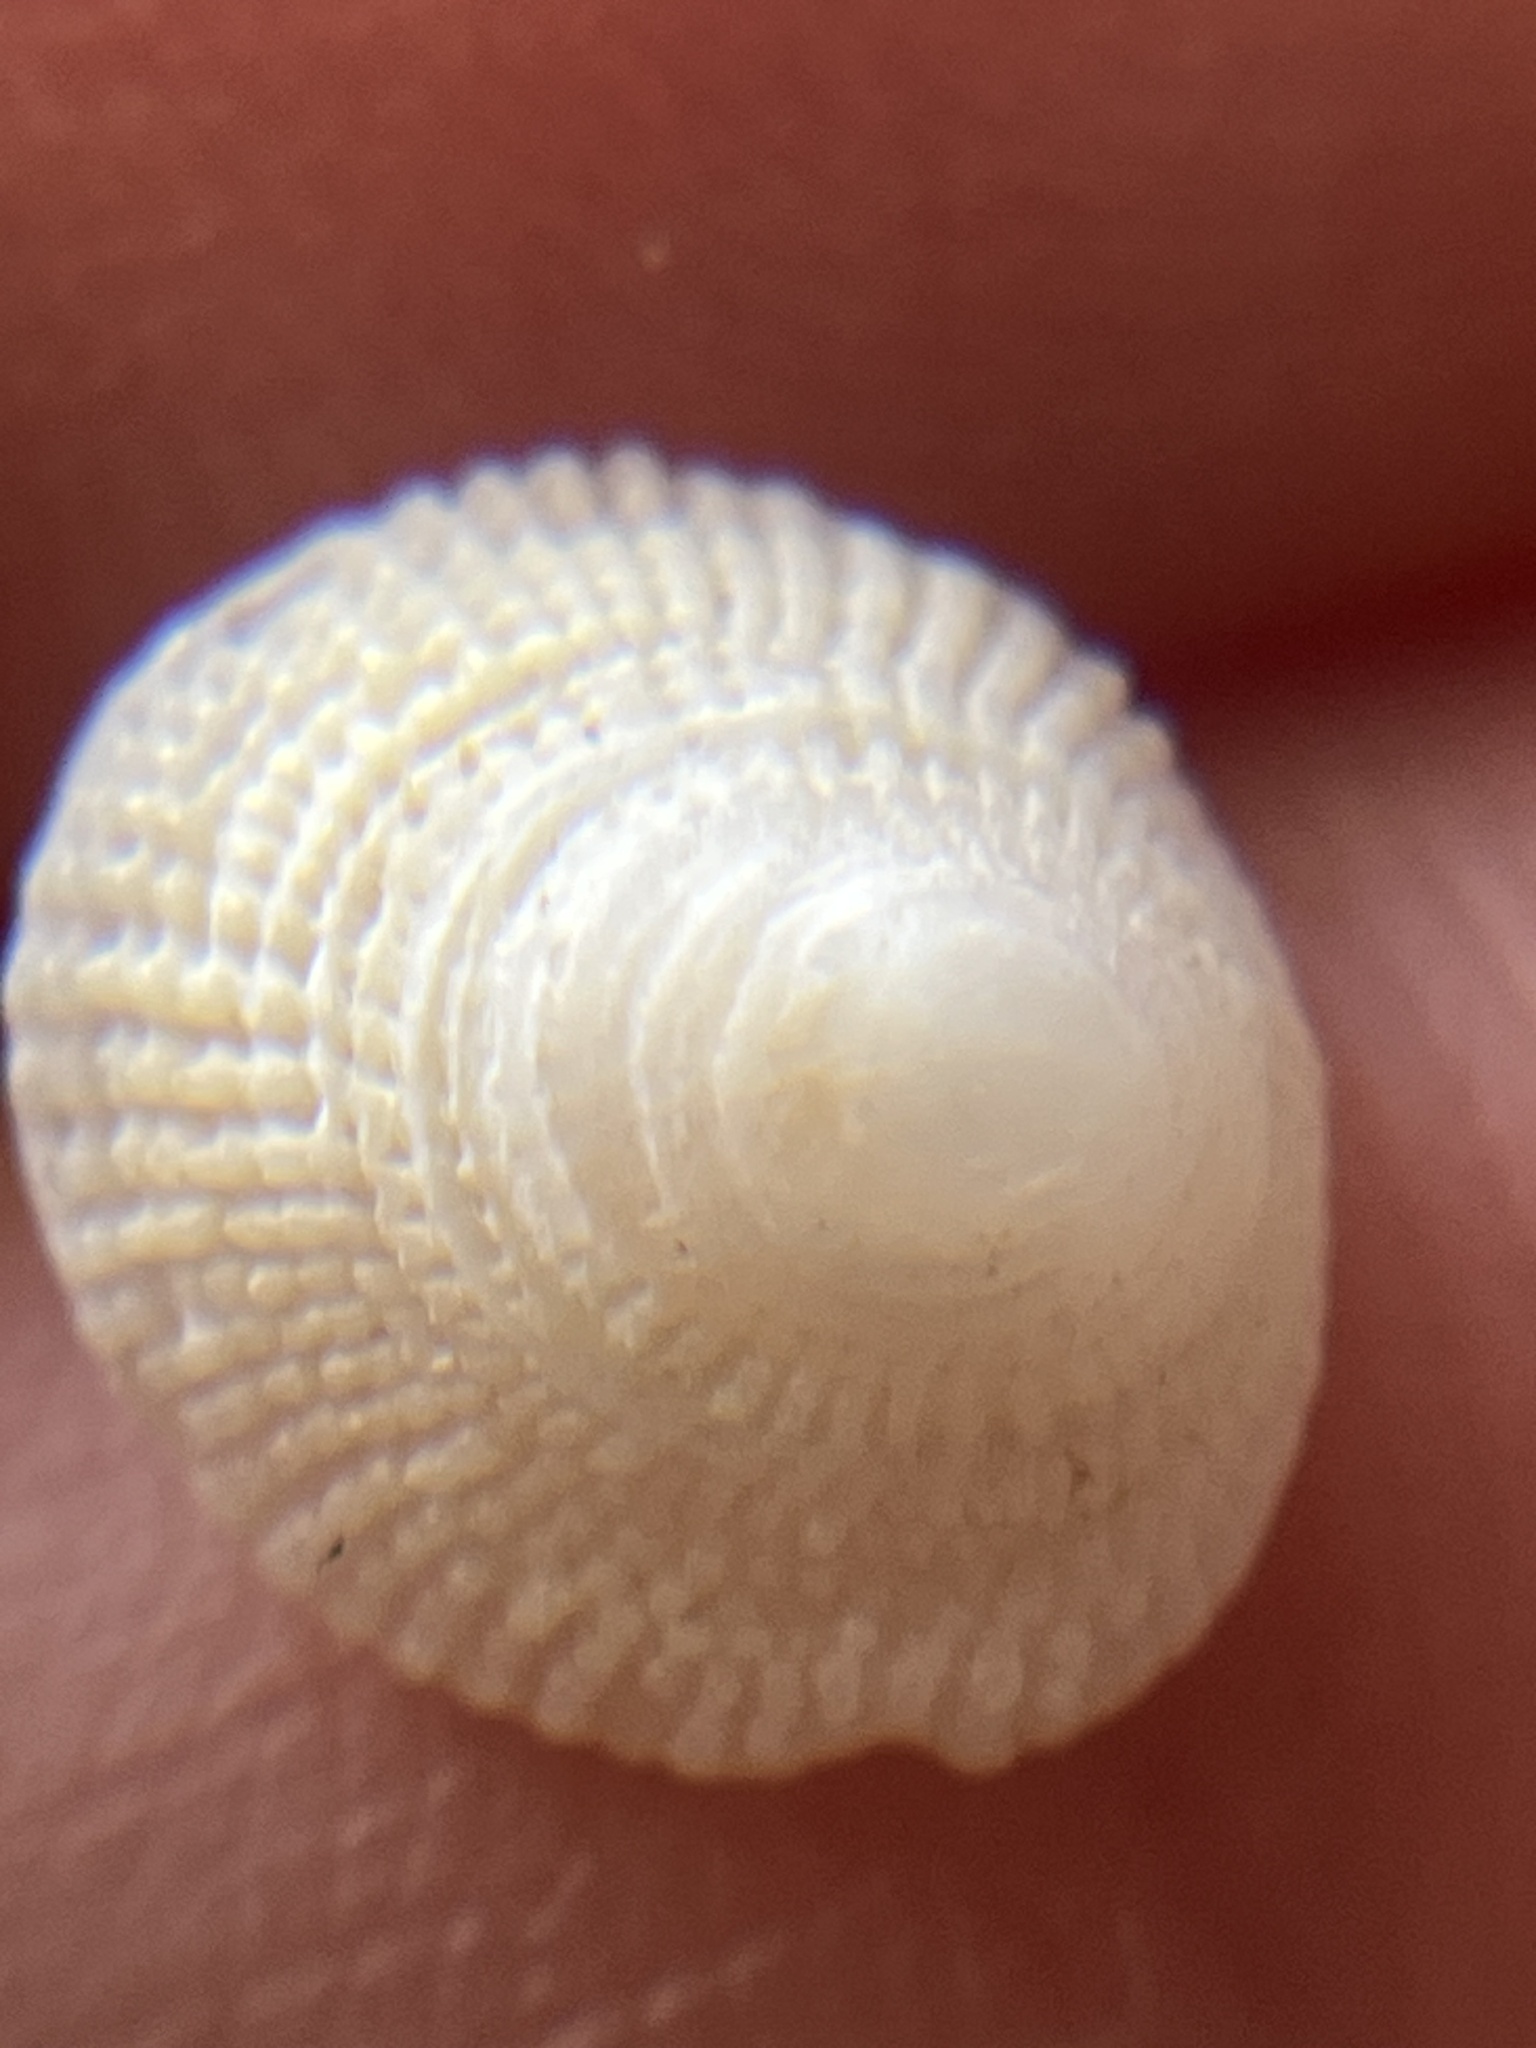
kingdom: Animalia
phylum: Mollusca
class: Gastropoda
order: Littorinimorpha
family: Hipponicidae
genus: Antisabia
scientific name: Antisabia imbricata
